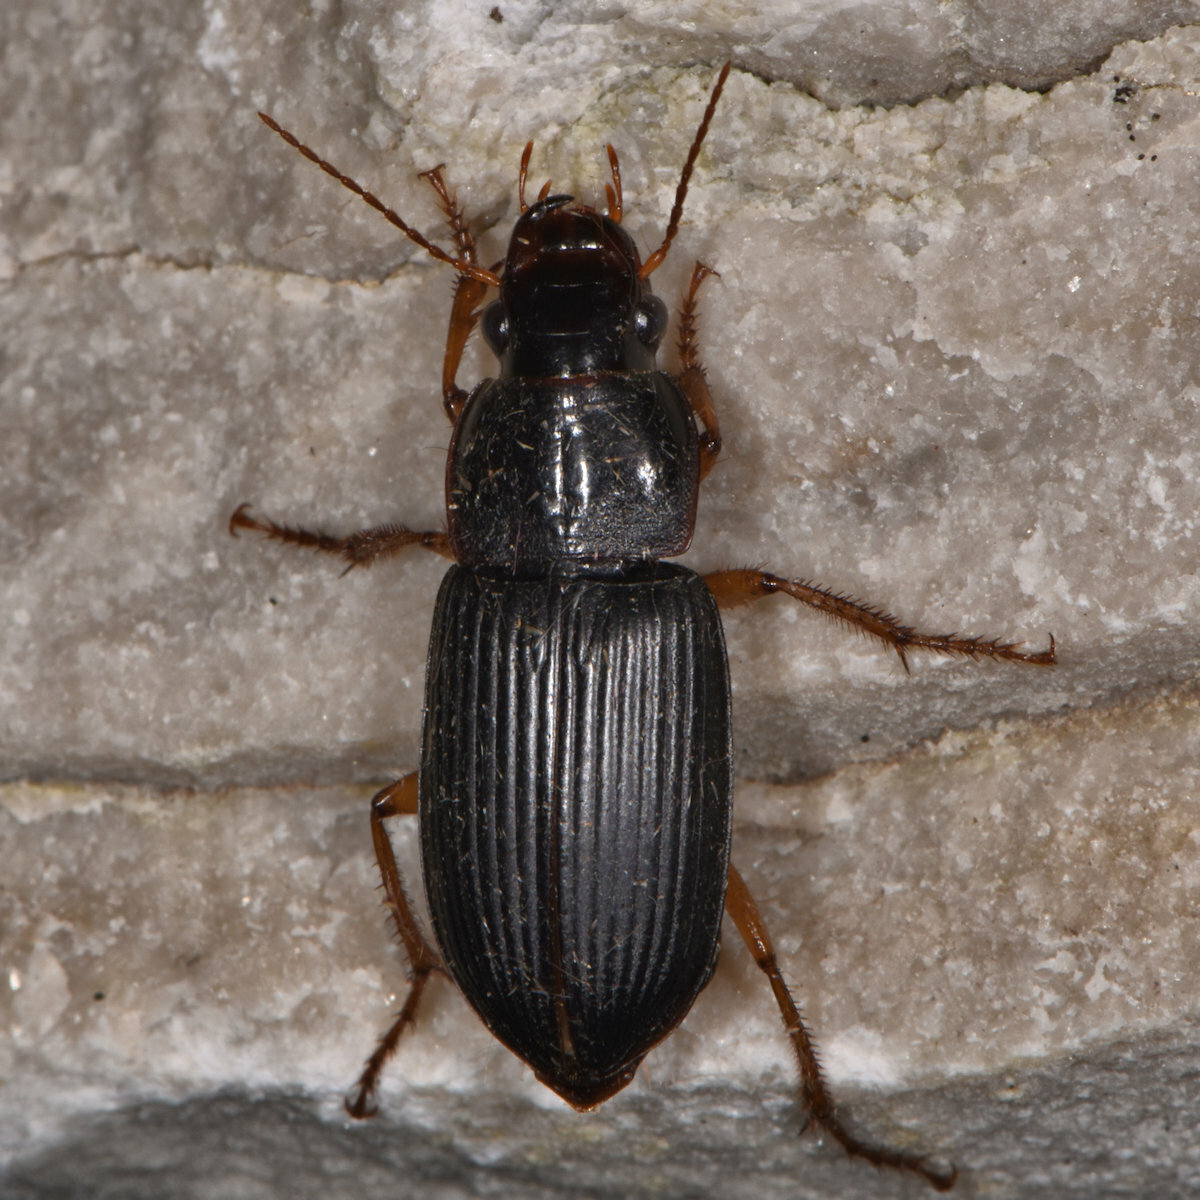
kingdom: Animalia
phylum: Arthropoda
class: Insecta
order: Coleoptera
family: Carabidae
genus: Harpalus
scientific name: Harpalus pensylvanicus
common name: Pennsylvania dingy ground beetle
